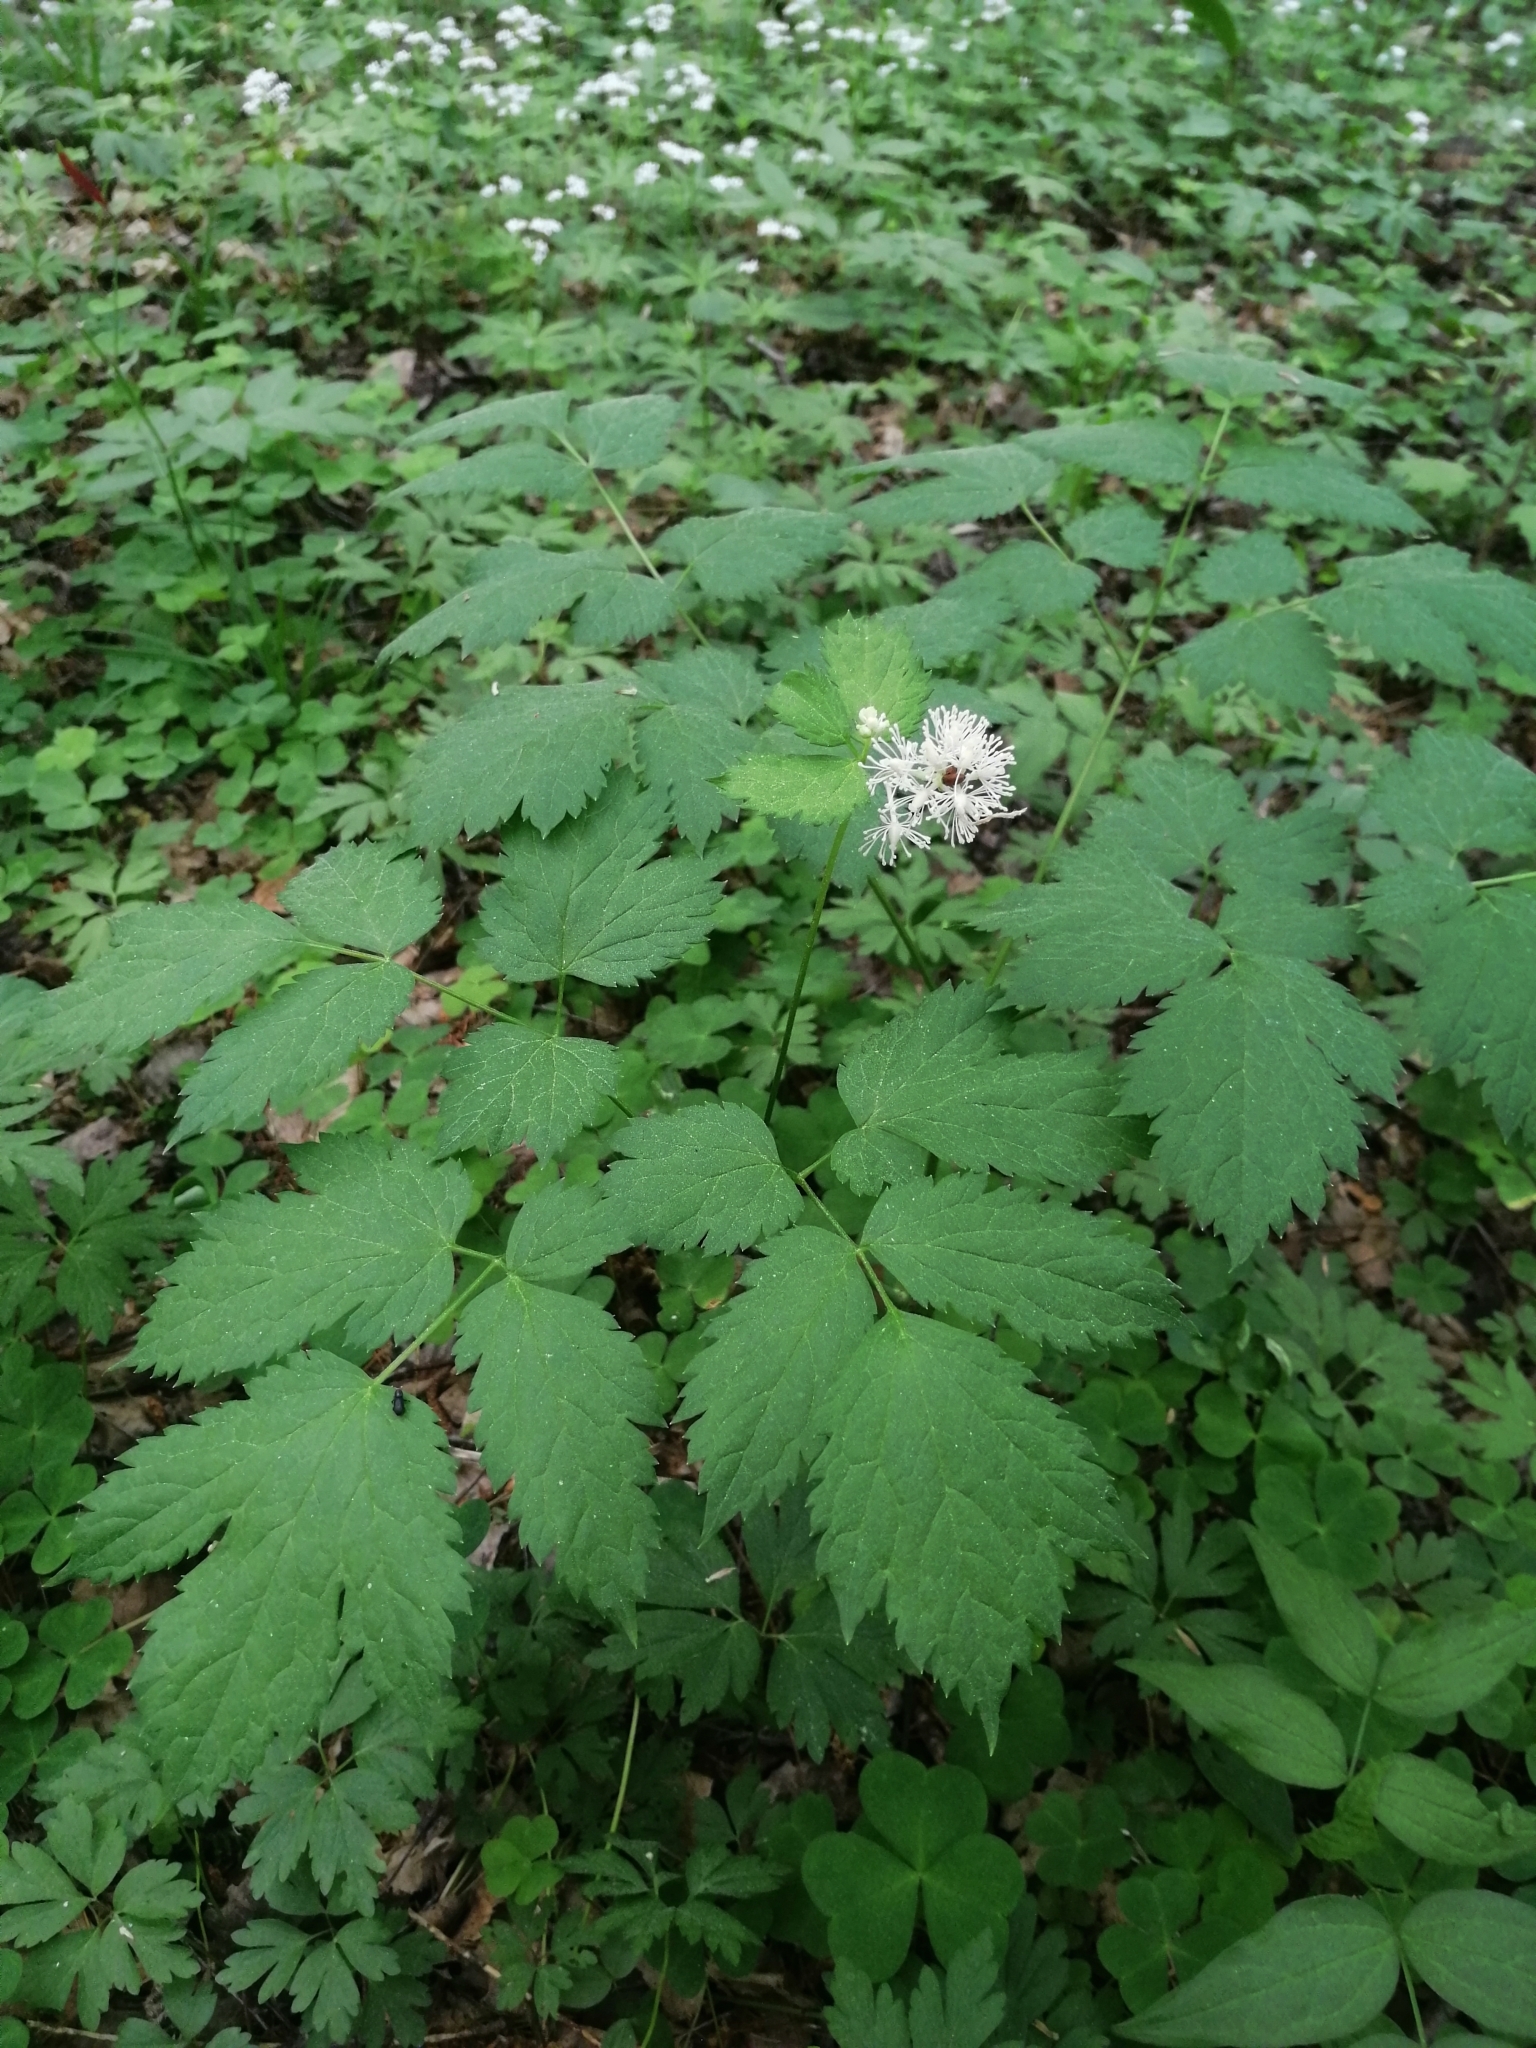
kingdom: Plantae
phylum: Tracheophyta
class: Magnoliopsida
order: Ranunculales
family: Ranunculaceae
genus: Actaea
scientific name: Actaea spicata
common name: Baneberry
